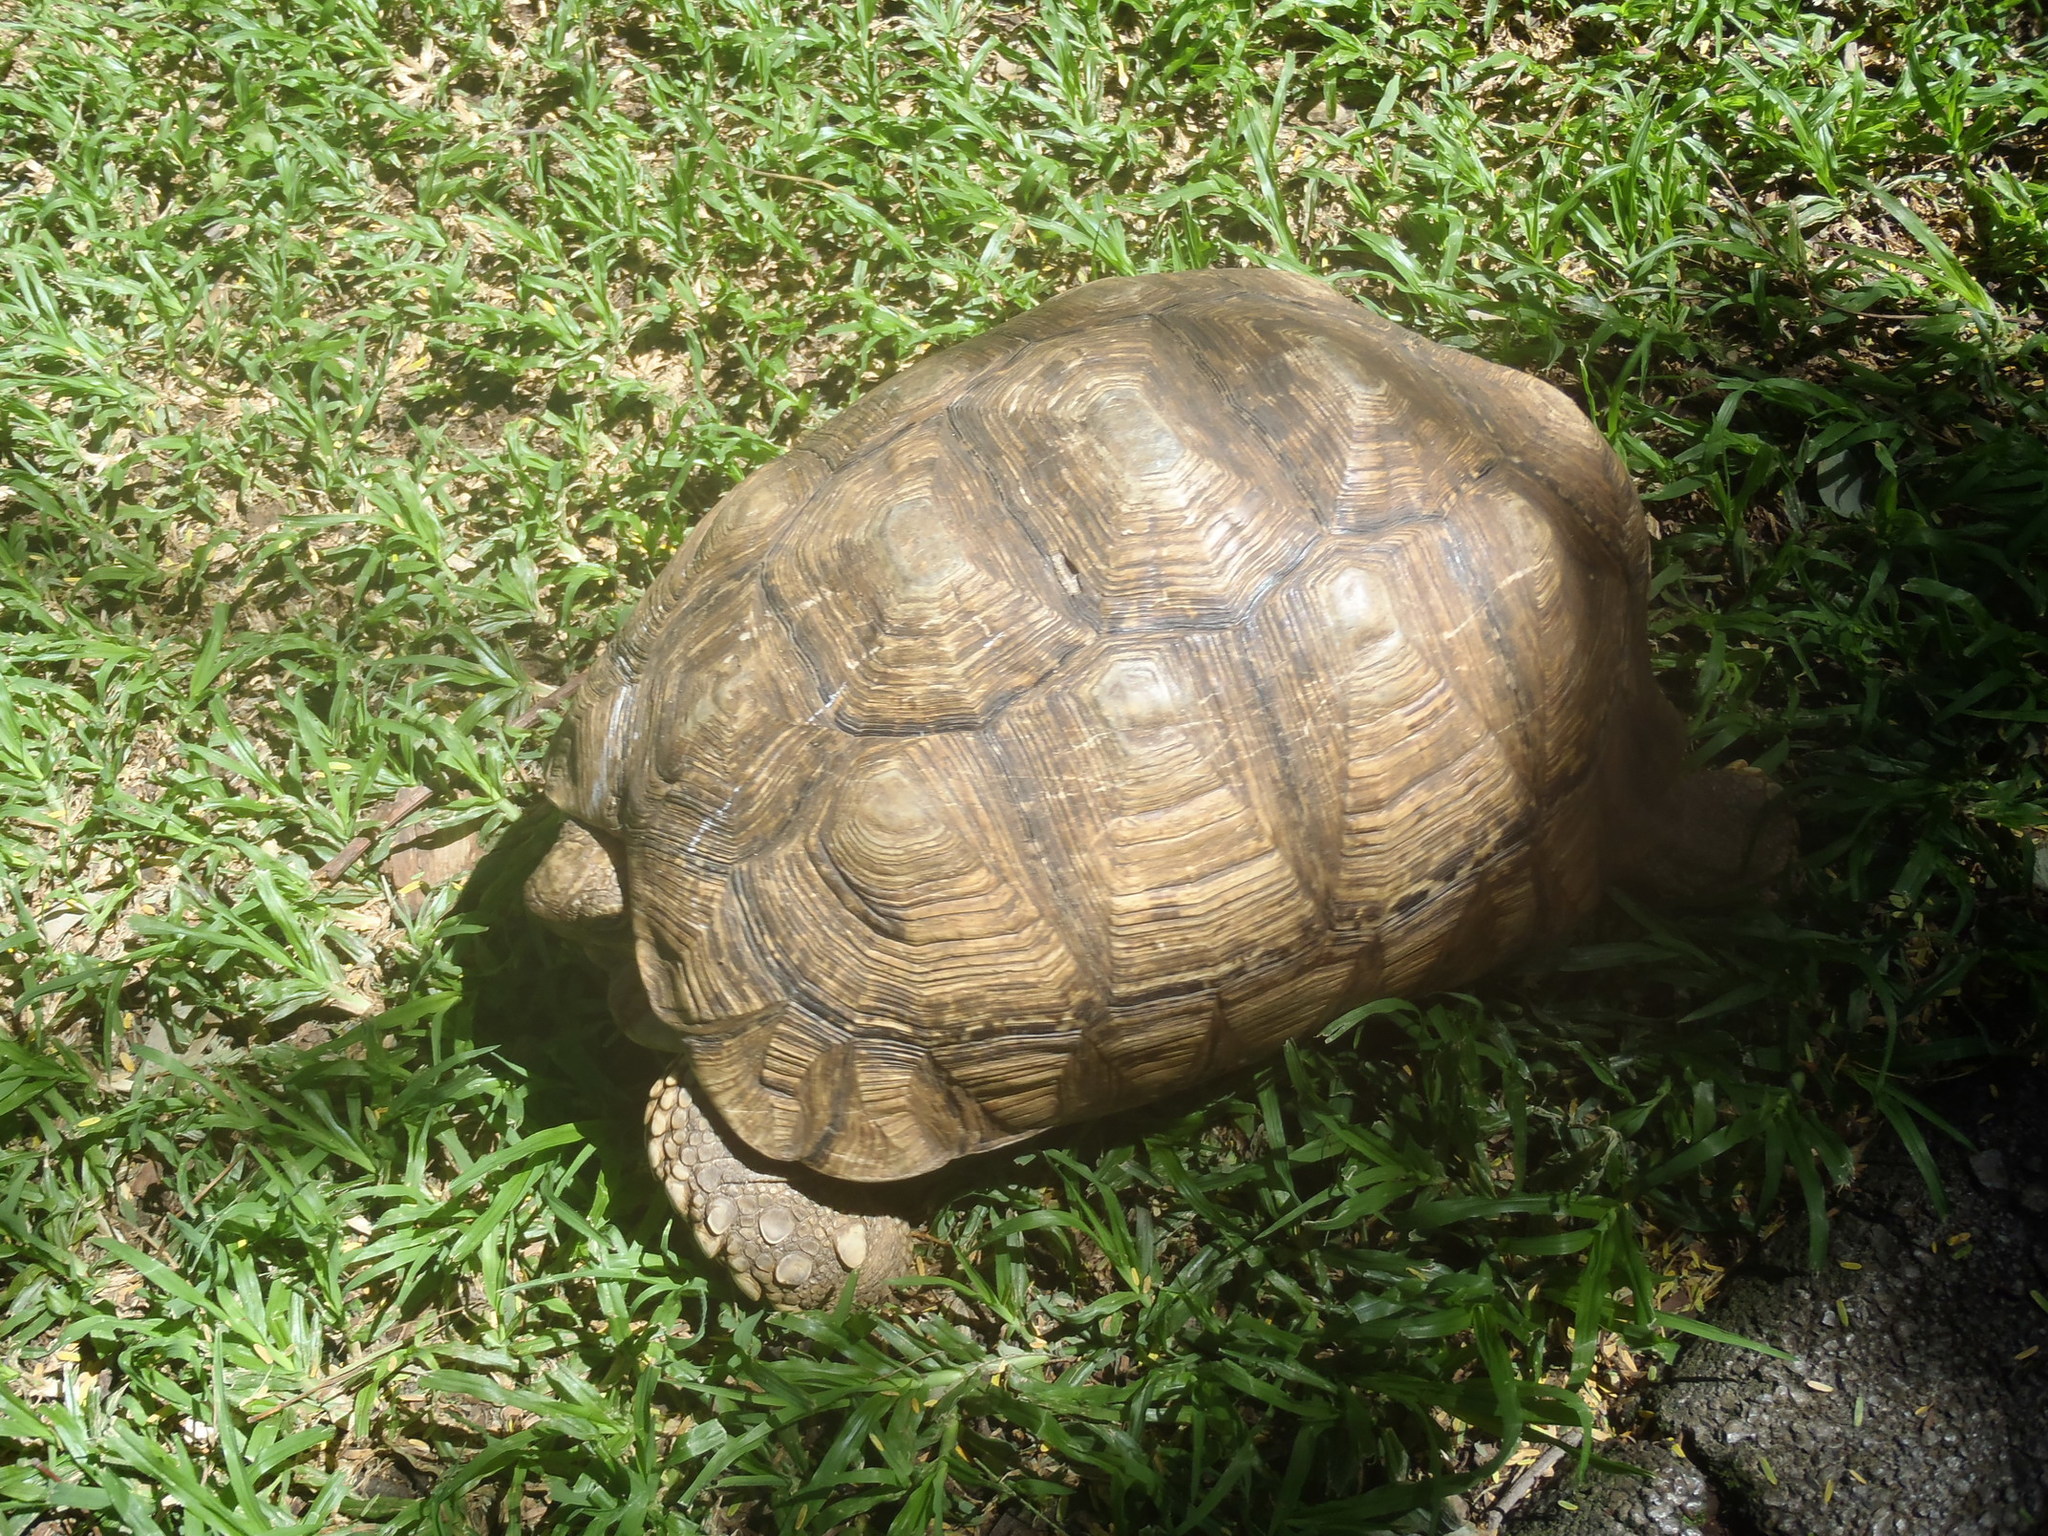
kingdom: Animalia
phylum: Chordata
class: Testudines
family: Testudinidae
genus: Stigmochelys
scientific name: Stigmochelys pardalis
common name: Leopard tortoise
